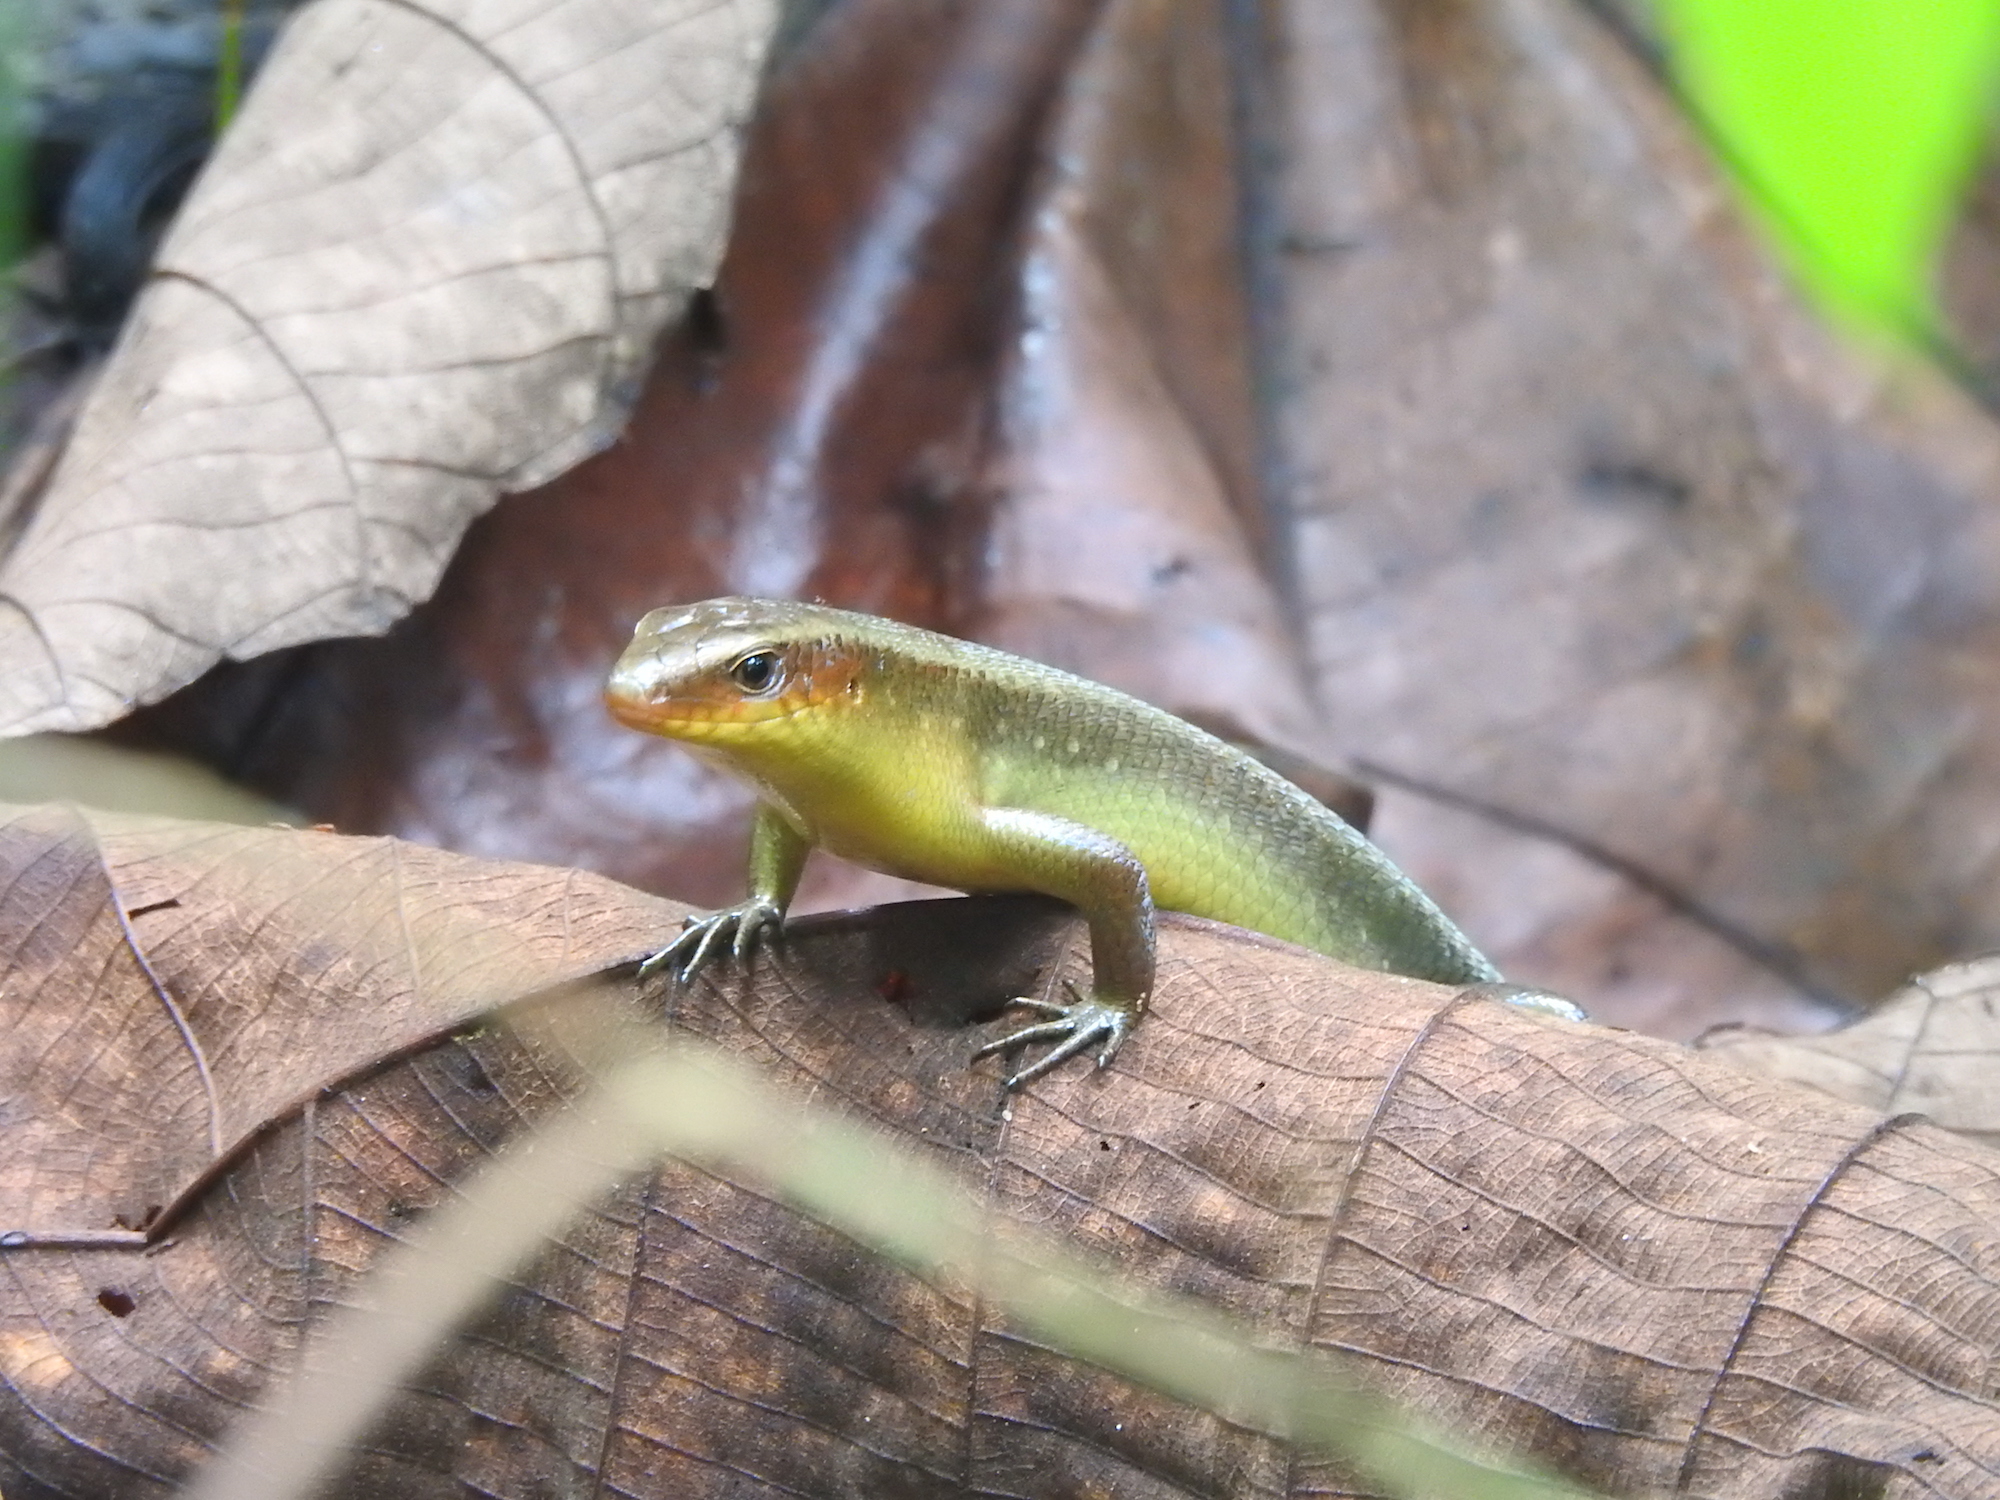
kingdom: Animalia
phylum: Chordata
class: Squamata
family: Scincidae
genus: Eutropis
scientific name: Eutropis multifasciata
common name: Common mabuya
